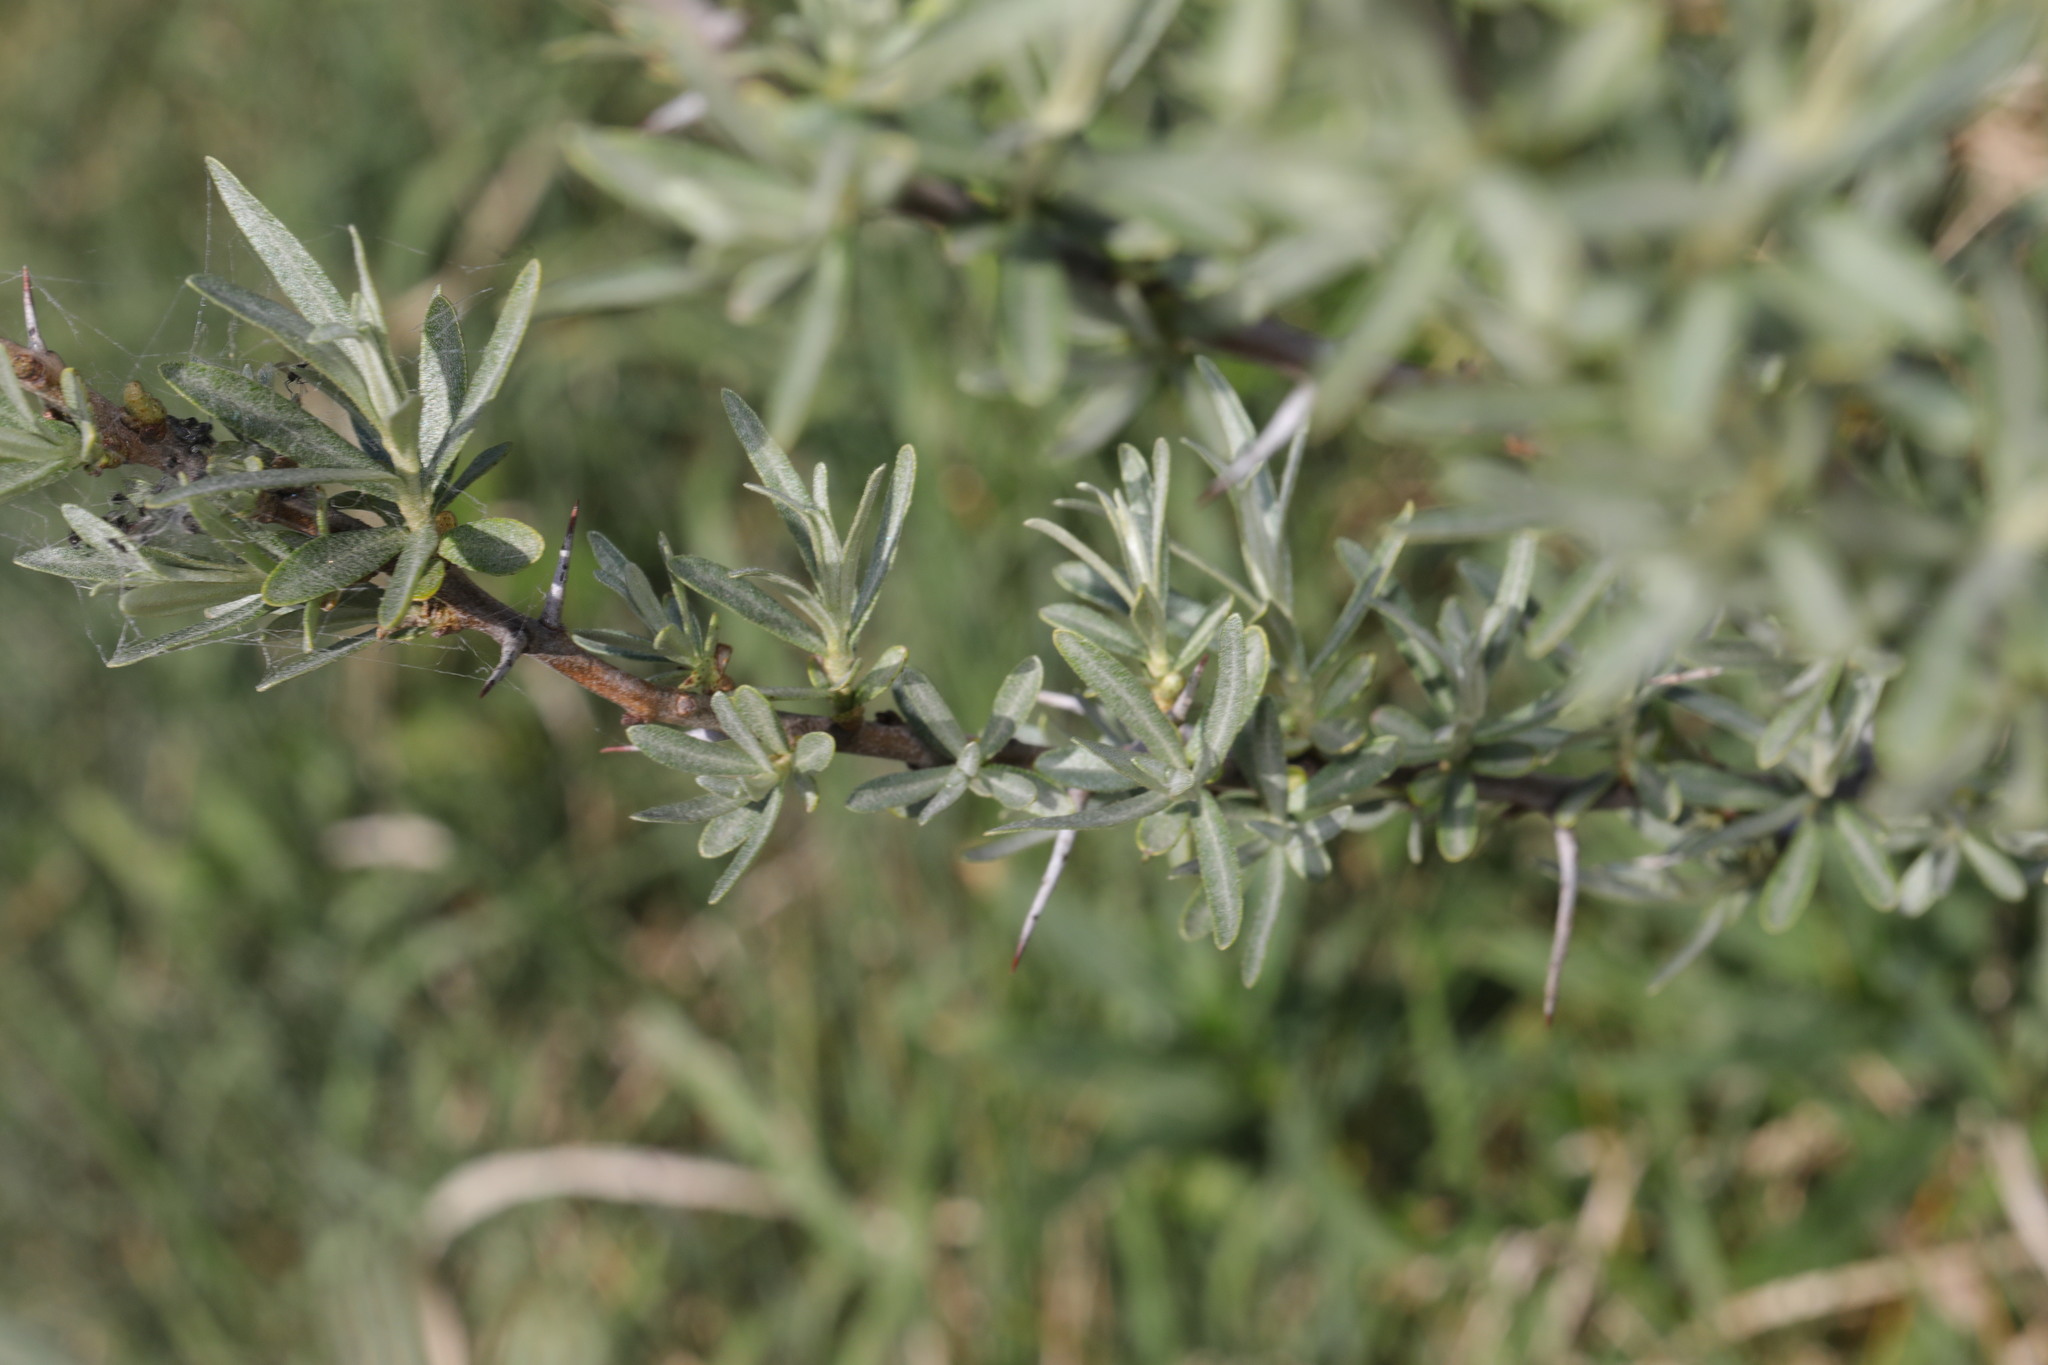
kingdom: Plantae
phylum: Tracheophyta
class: Magnoliopsida
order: Rosales
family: Elaeagnaceae
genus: Hippophae
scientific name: Hippophae rhamnoides
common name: Sea-buckthorn
